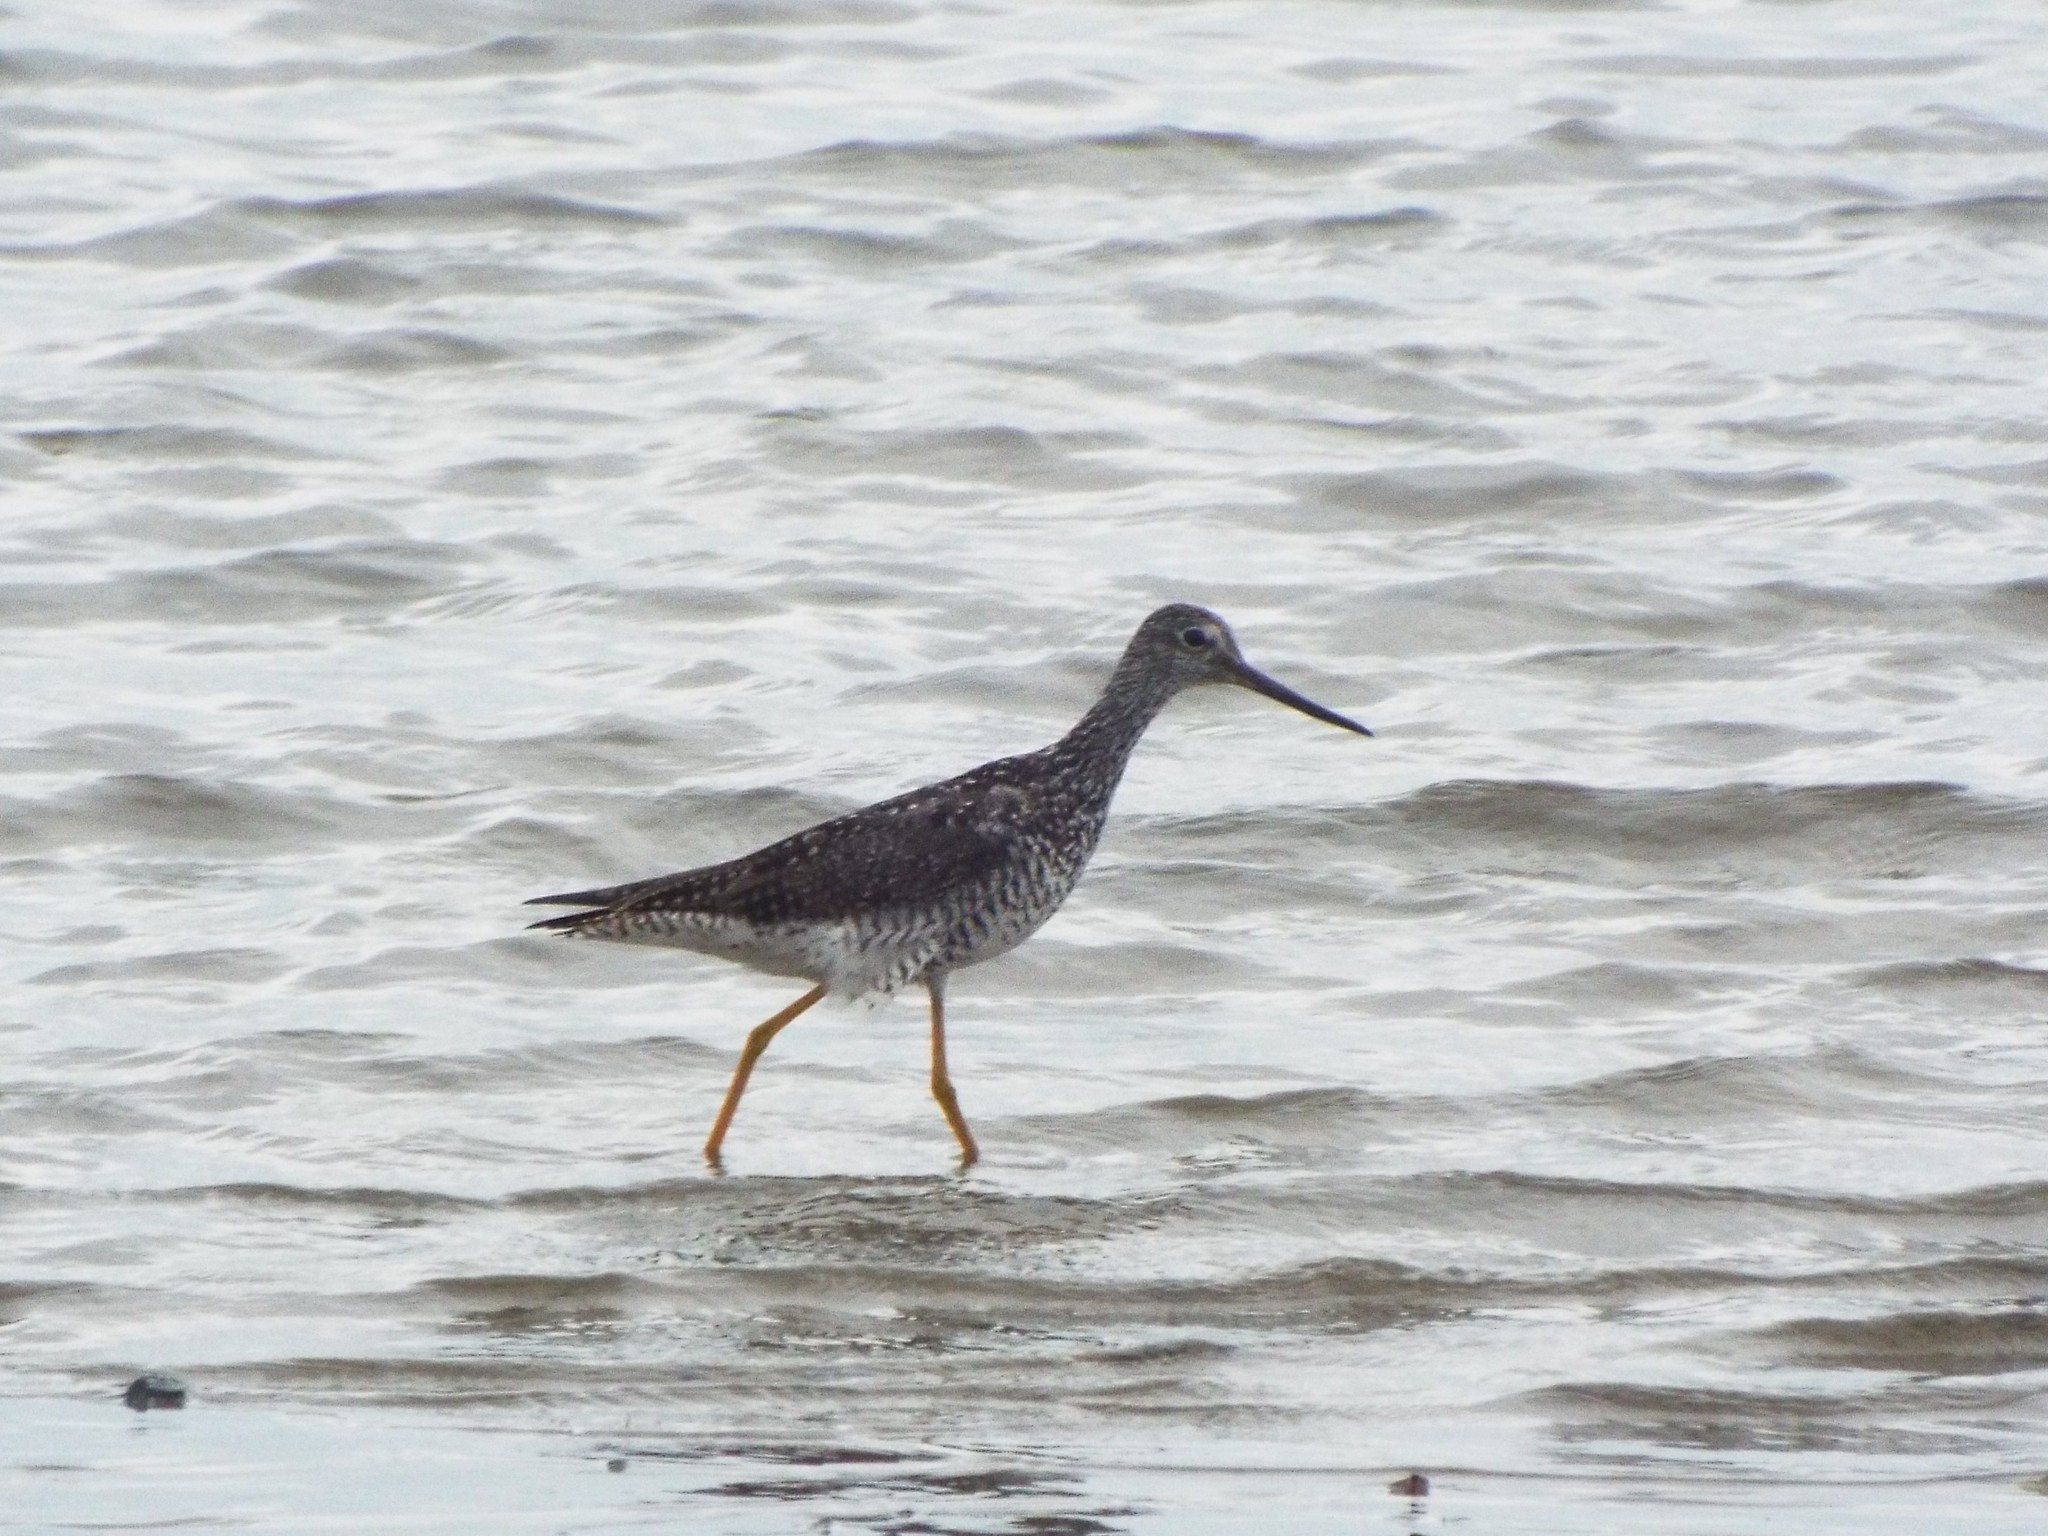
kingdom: Animalia
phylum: Chordata
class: Aves
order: Charadriiformes
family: Scolopacidae
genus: Tringa
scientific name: Tringa melanoleuca
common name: Greater yellowlegs
